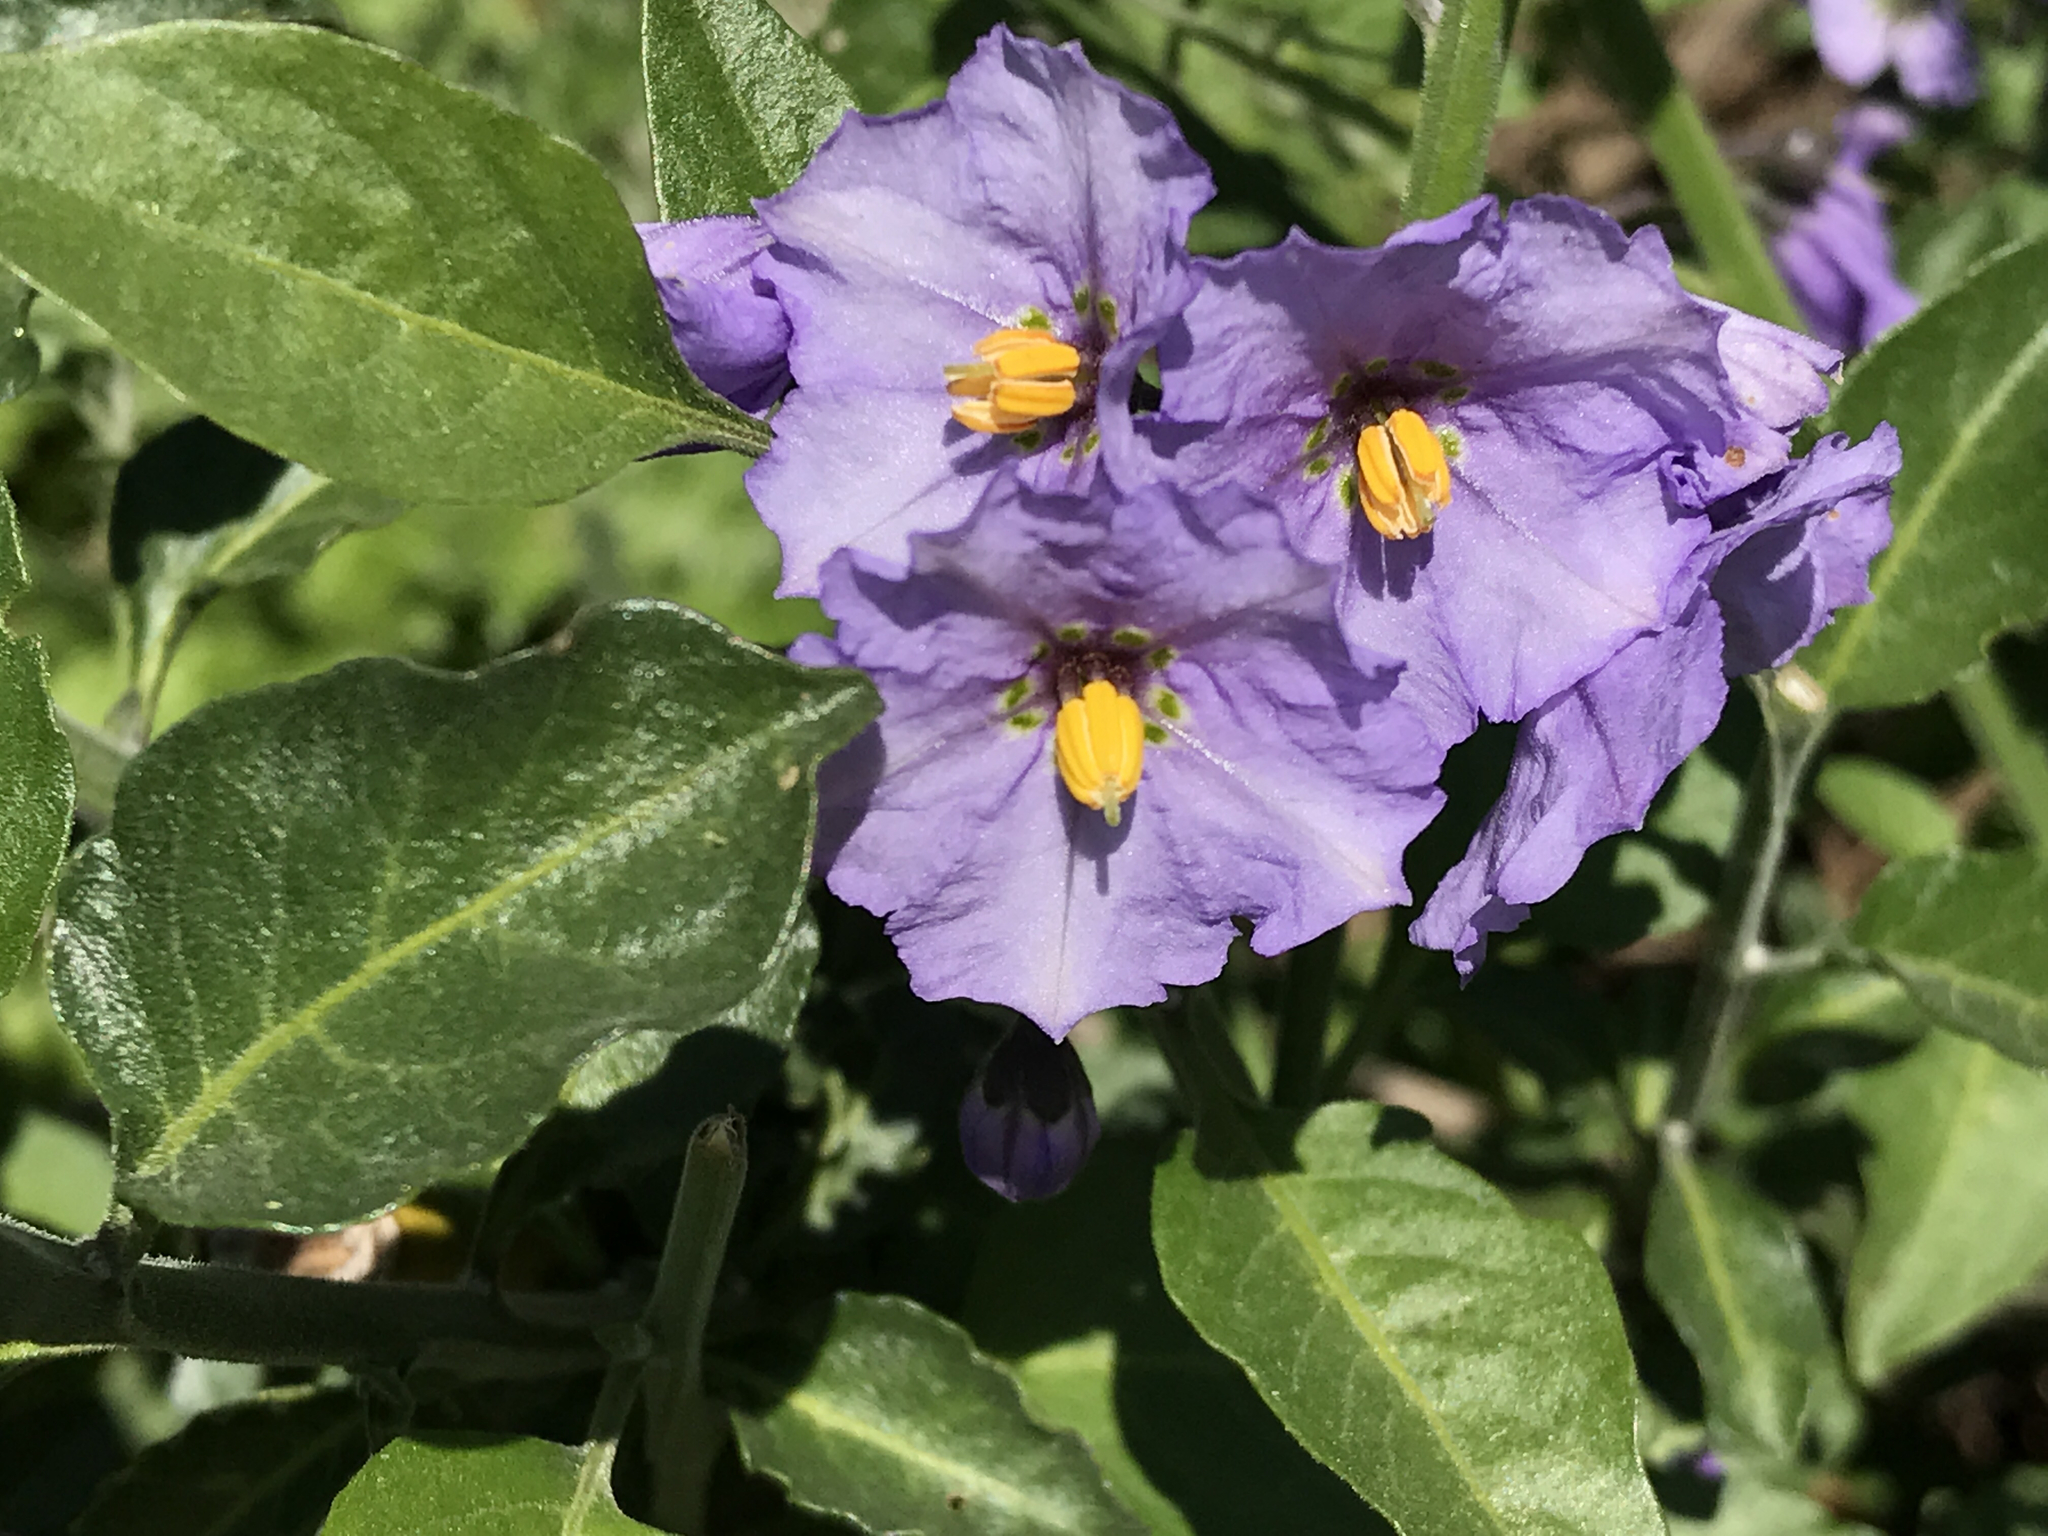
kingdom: Plantae
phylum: Tracheophyta
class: Magnoliopsida
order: Solanales
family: Solanaceae
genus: Solanum
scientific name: Solanum umbelliferum
